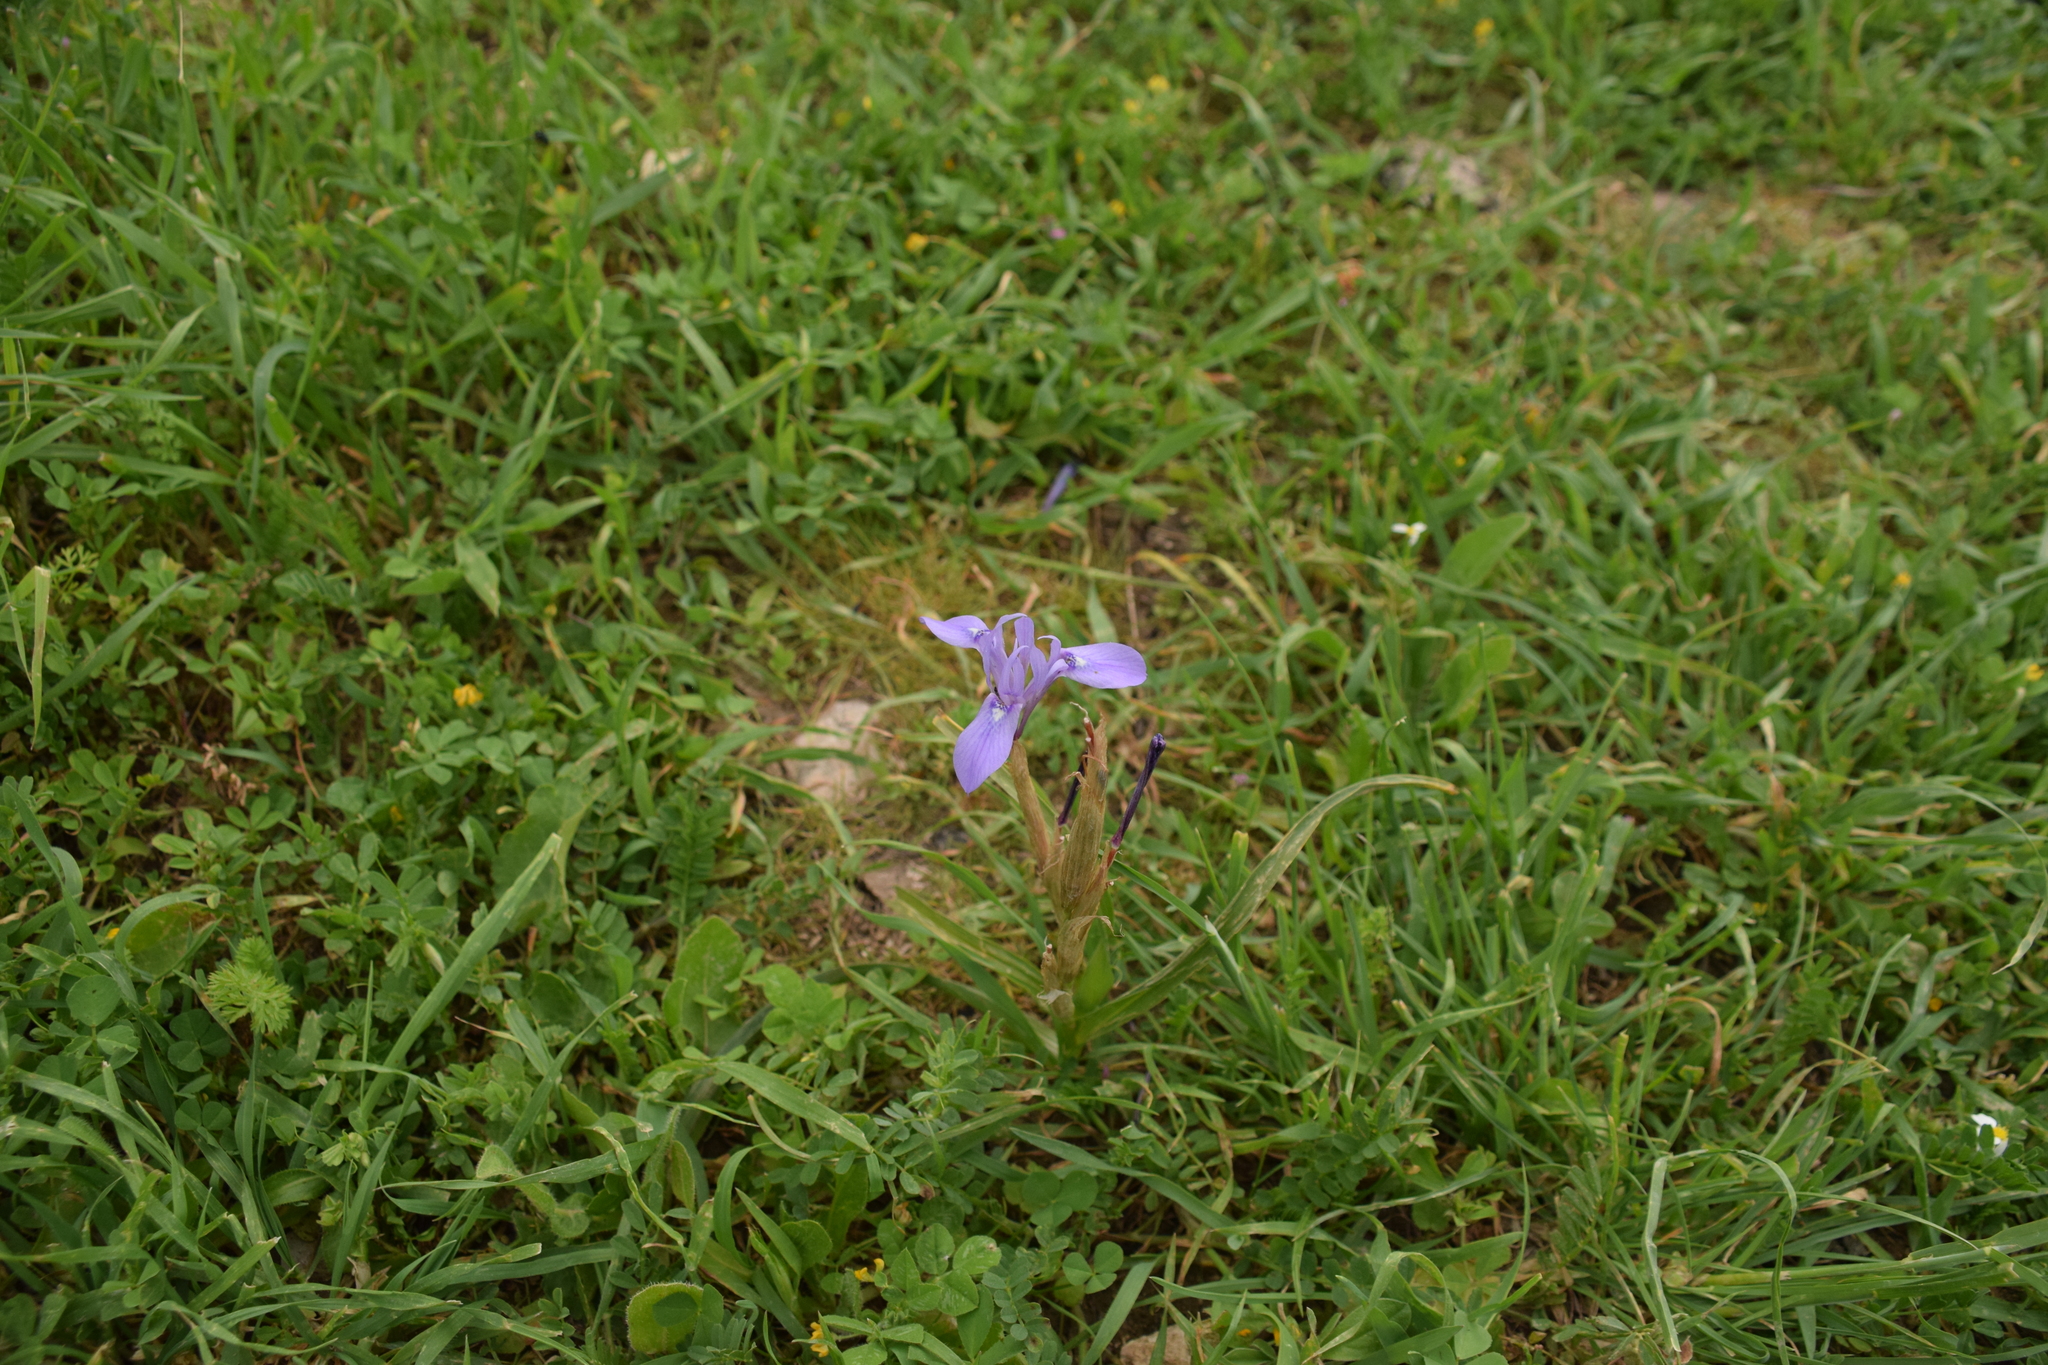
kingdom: Plantae
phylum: Tracheophyta
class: Liliopsida
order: Asparagales
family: Iridaceae
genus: Moraea
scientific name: Moraea sisyrinchium
